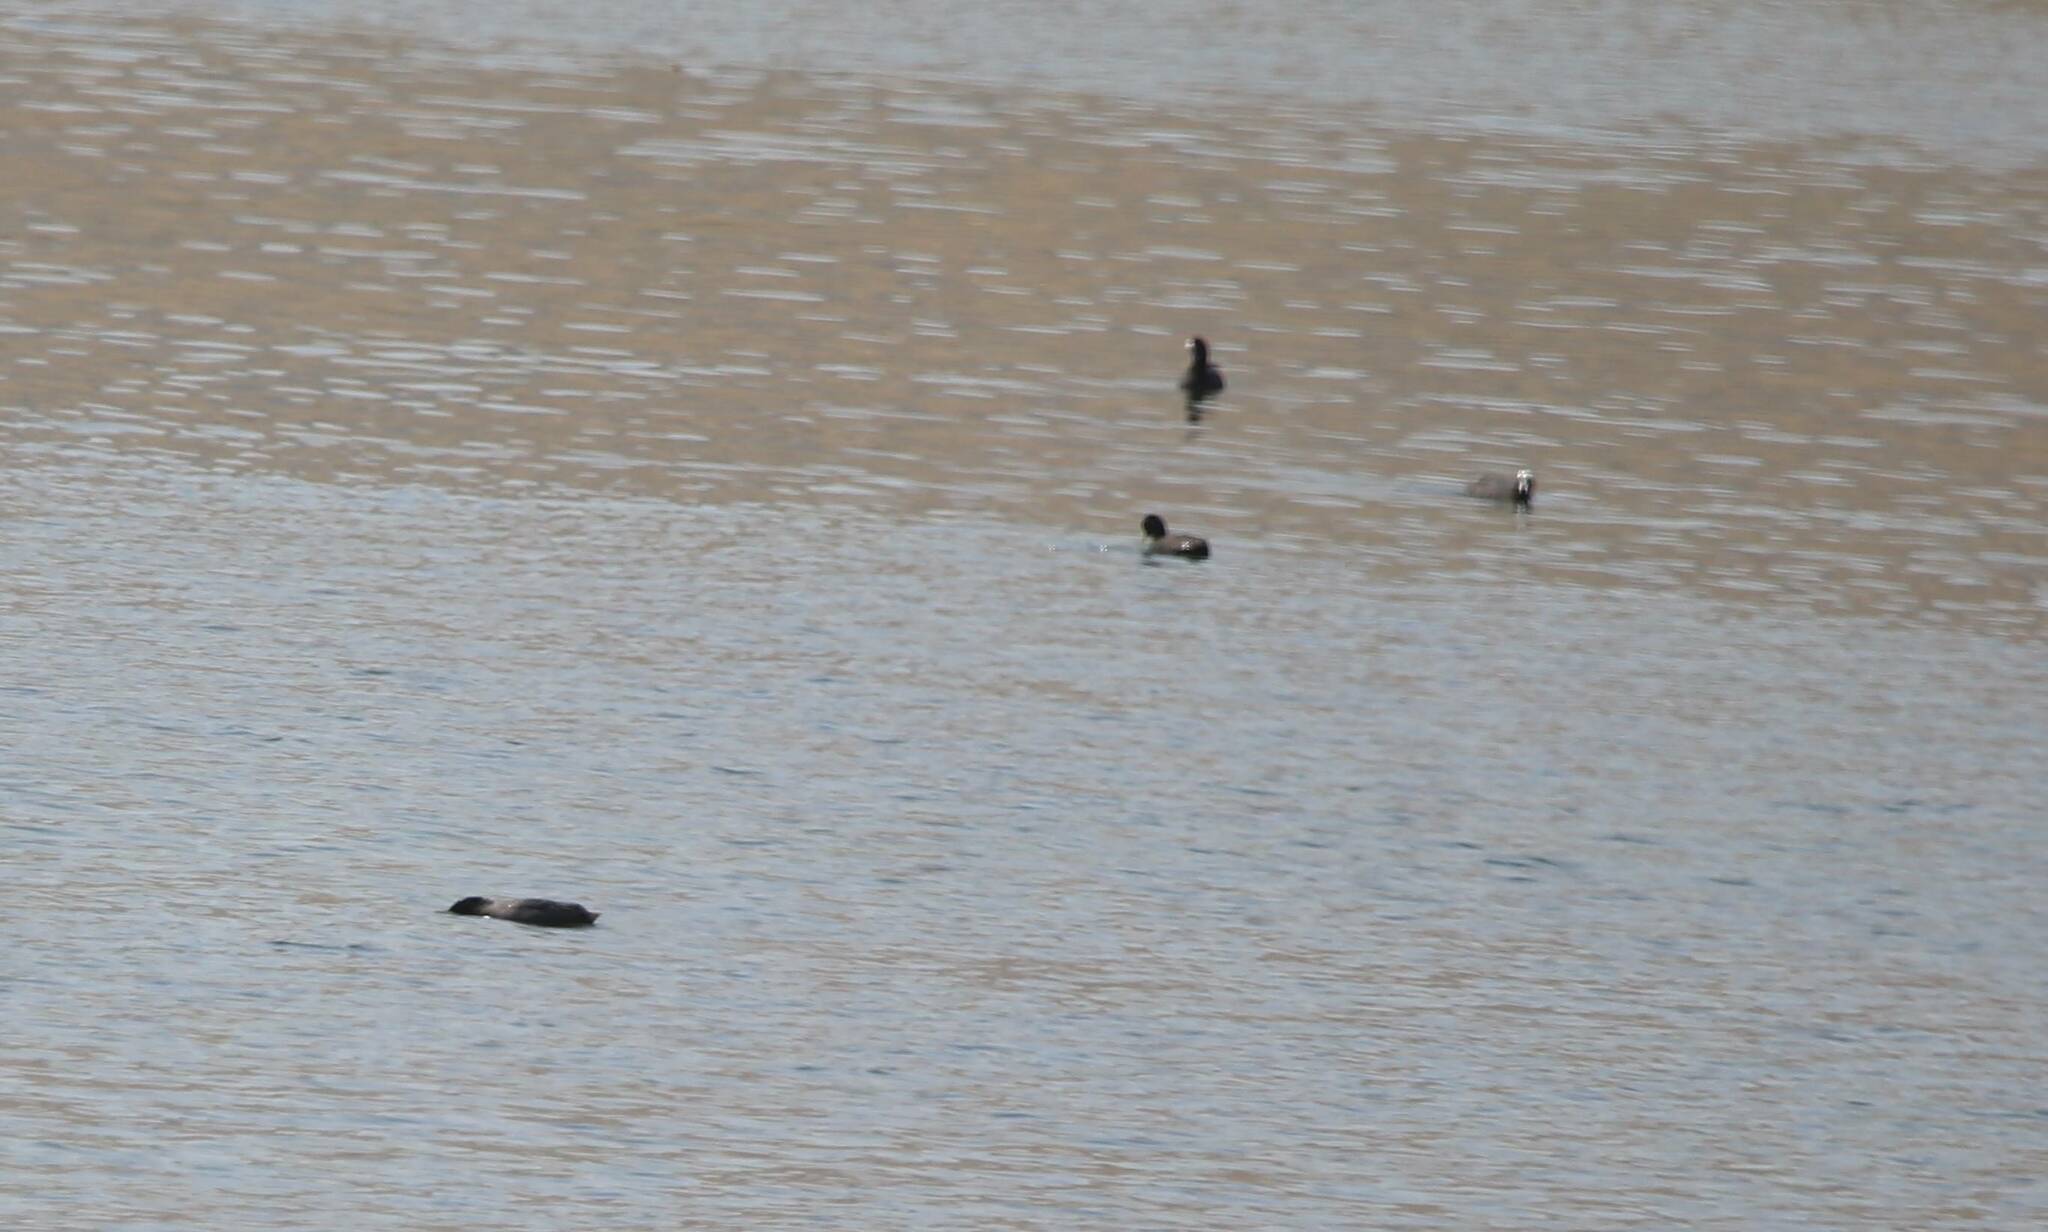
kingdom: Animalia
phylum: Chordata
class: Aves
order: Gruiformes
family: Rallidae
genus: Fulica
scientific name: Fulica atra
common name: Eurasian coot
